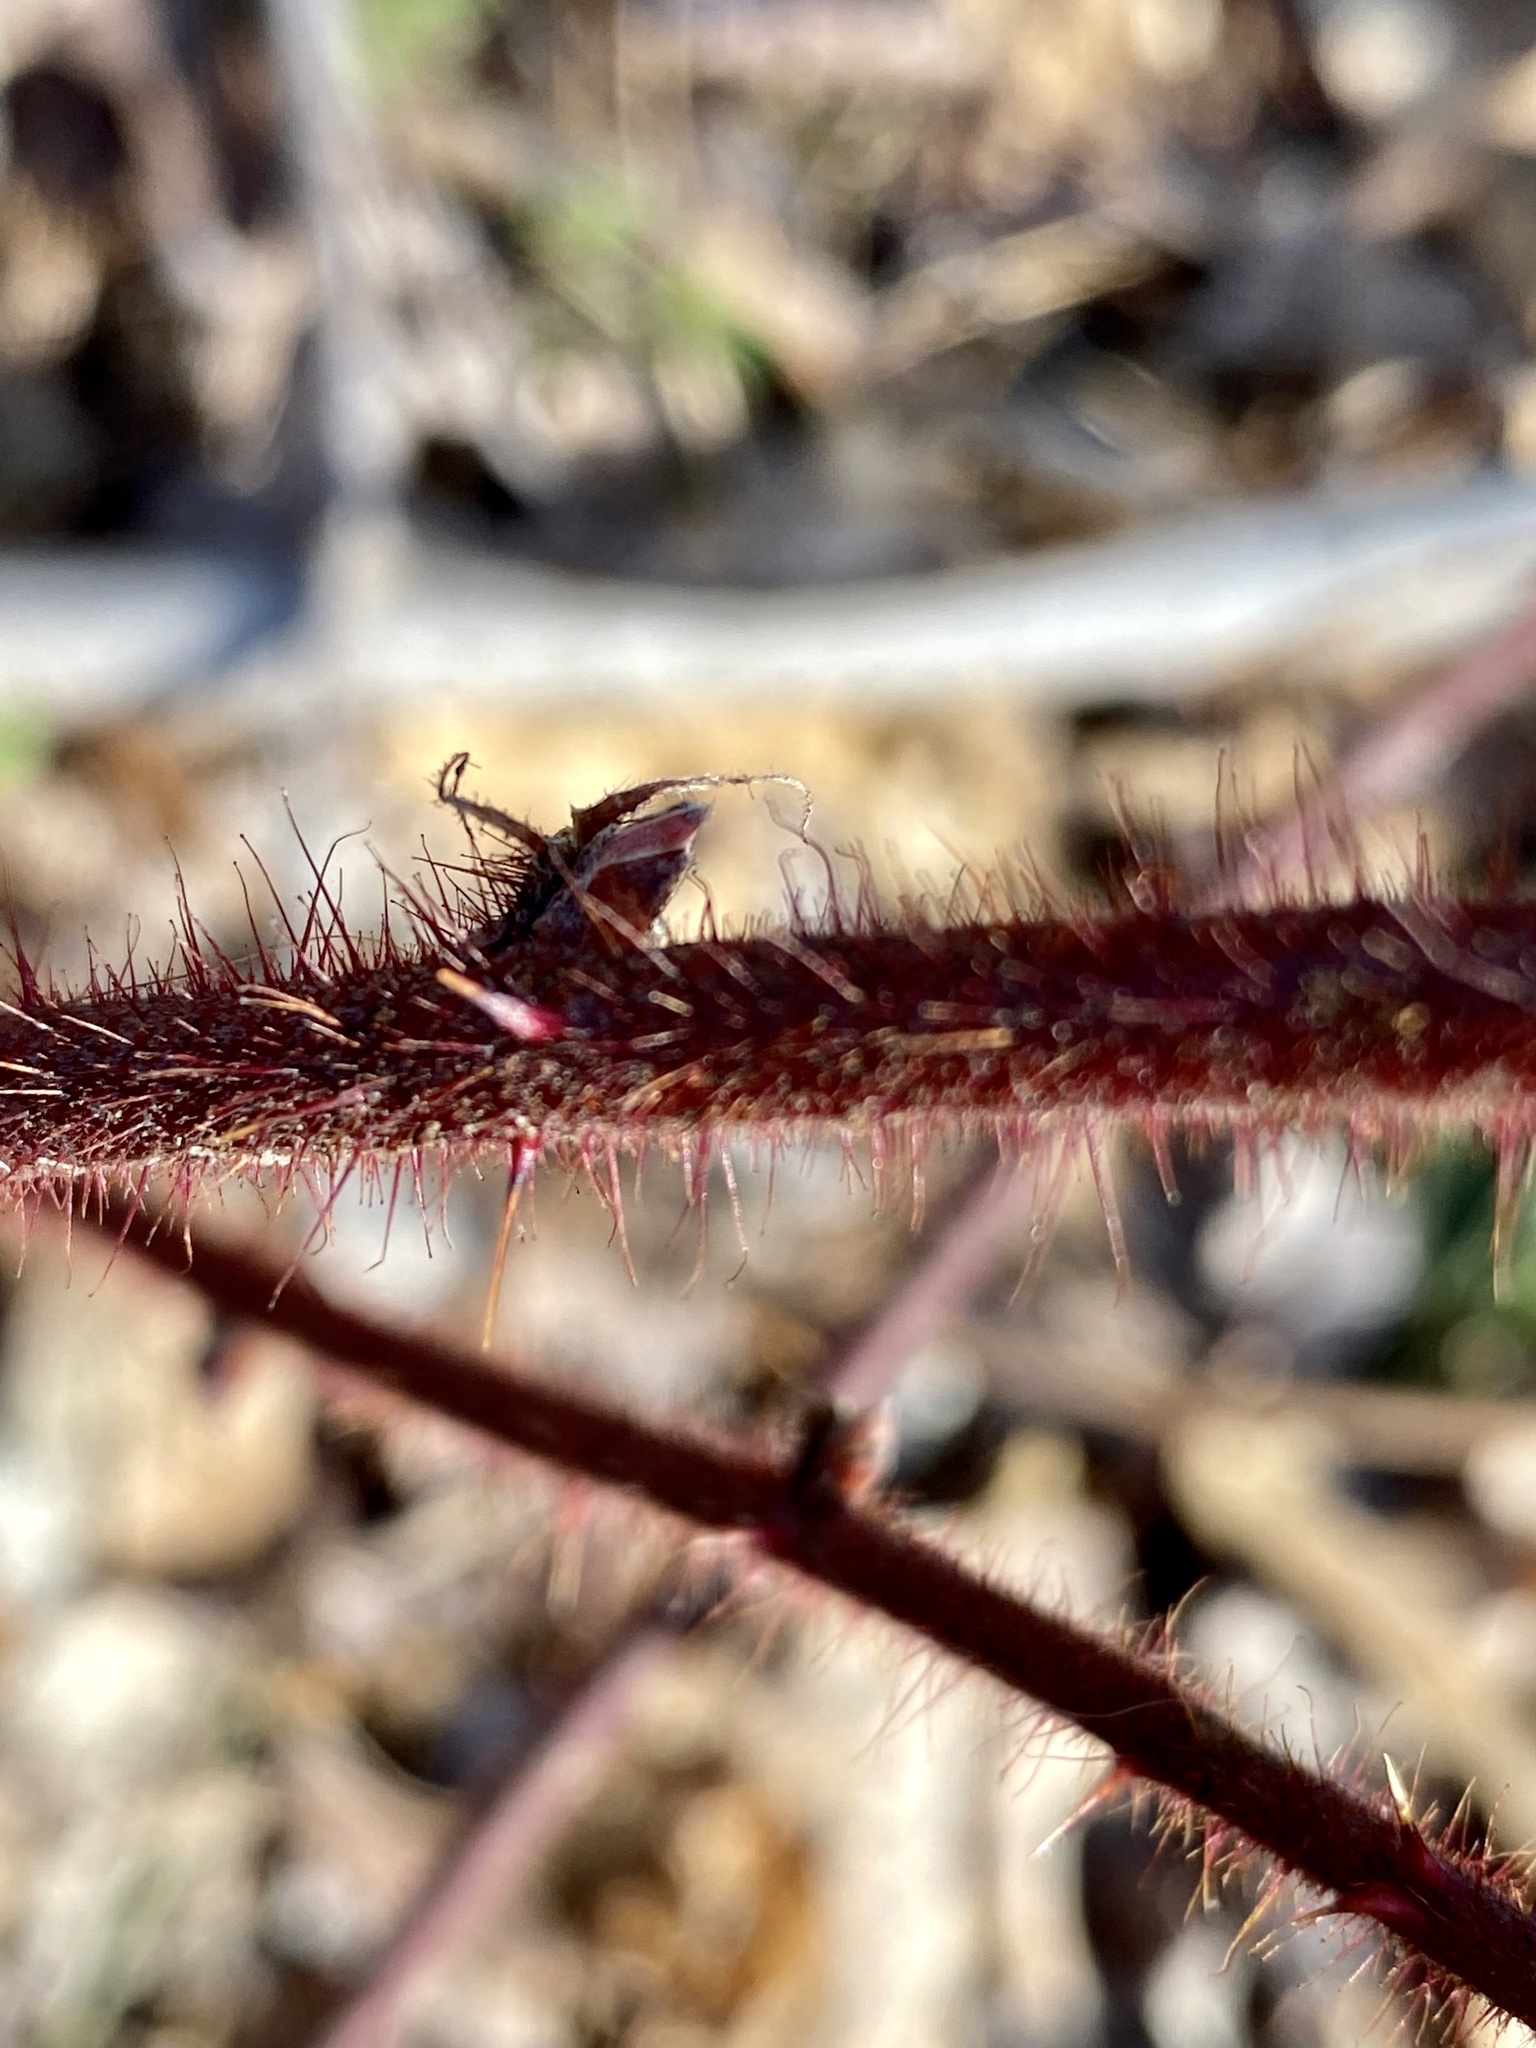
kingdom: Plantae
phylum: Tracheophyta
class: Magnoliopsida
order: Rosales
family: Rosaceae
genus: Rubus
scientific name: Rubus phoenicolasius
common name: Japanese wineberry
